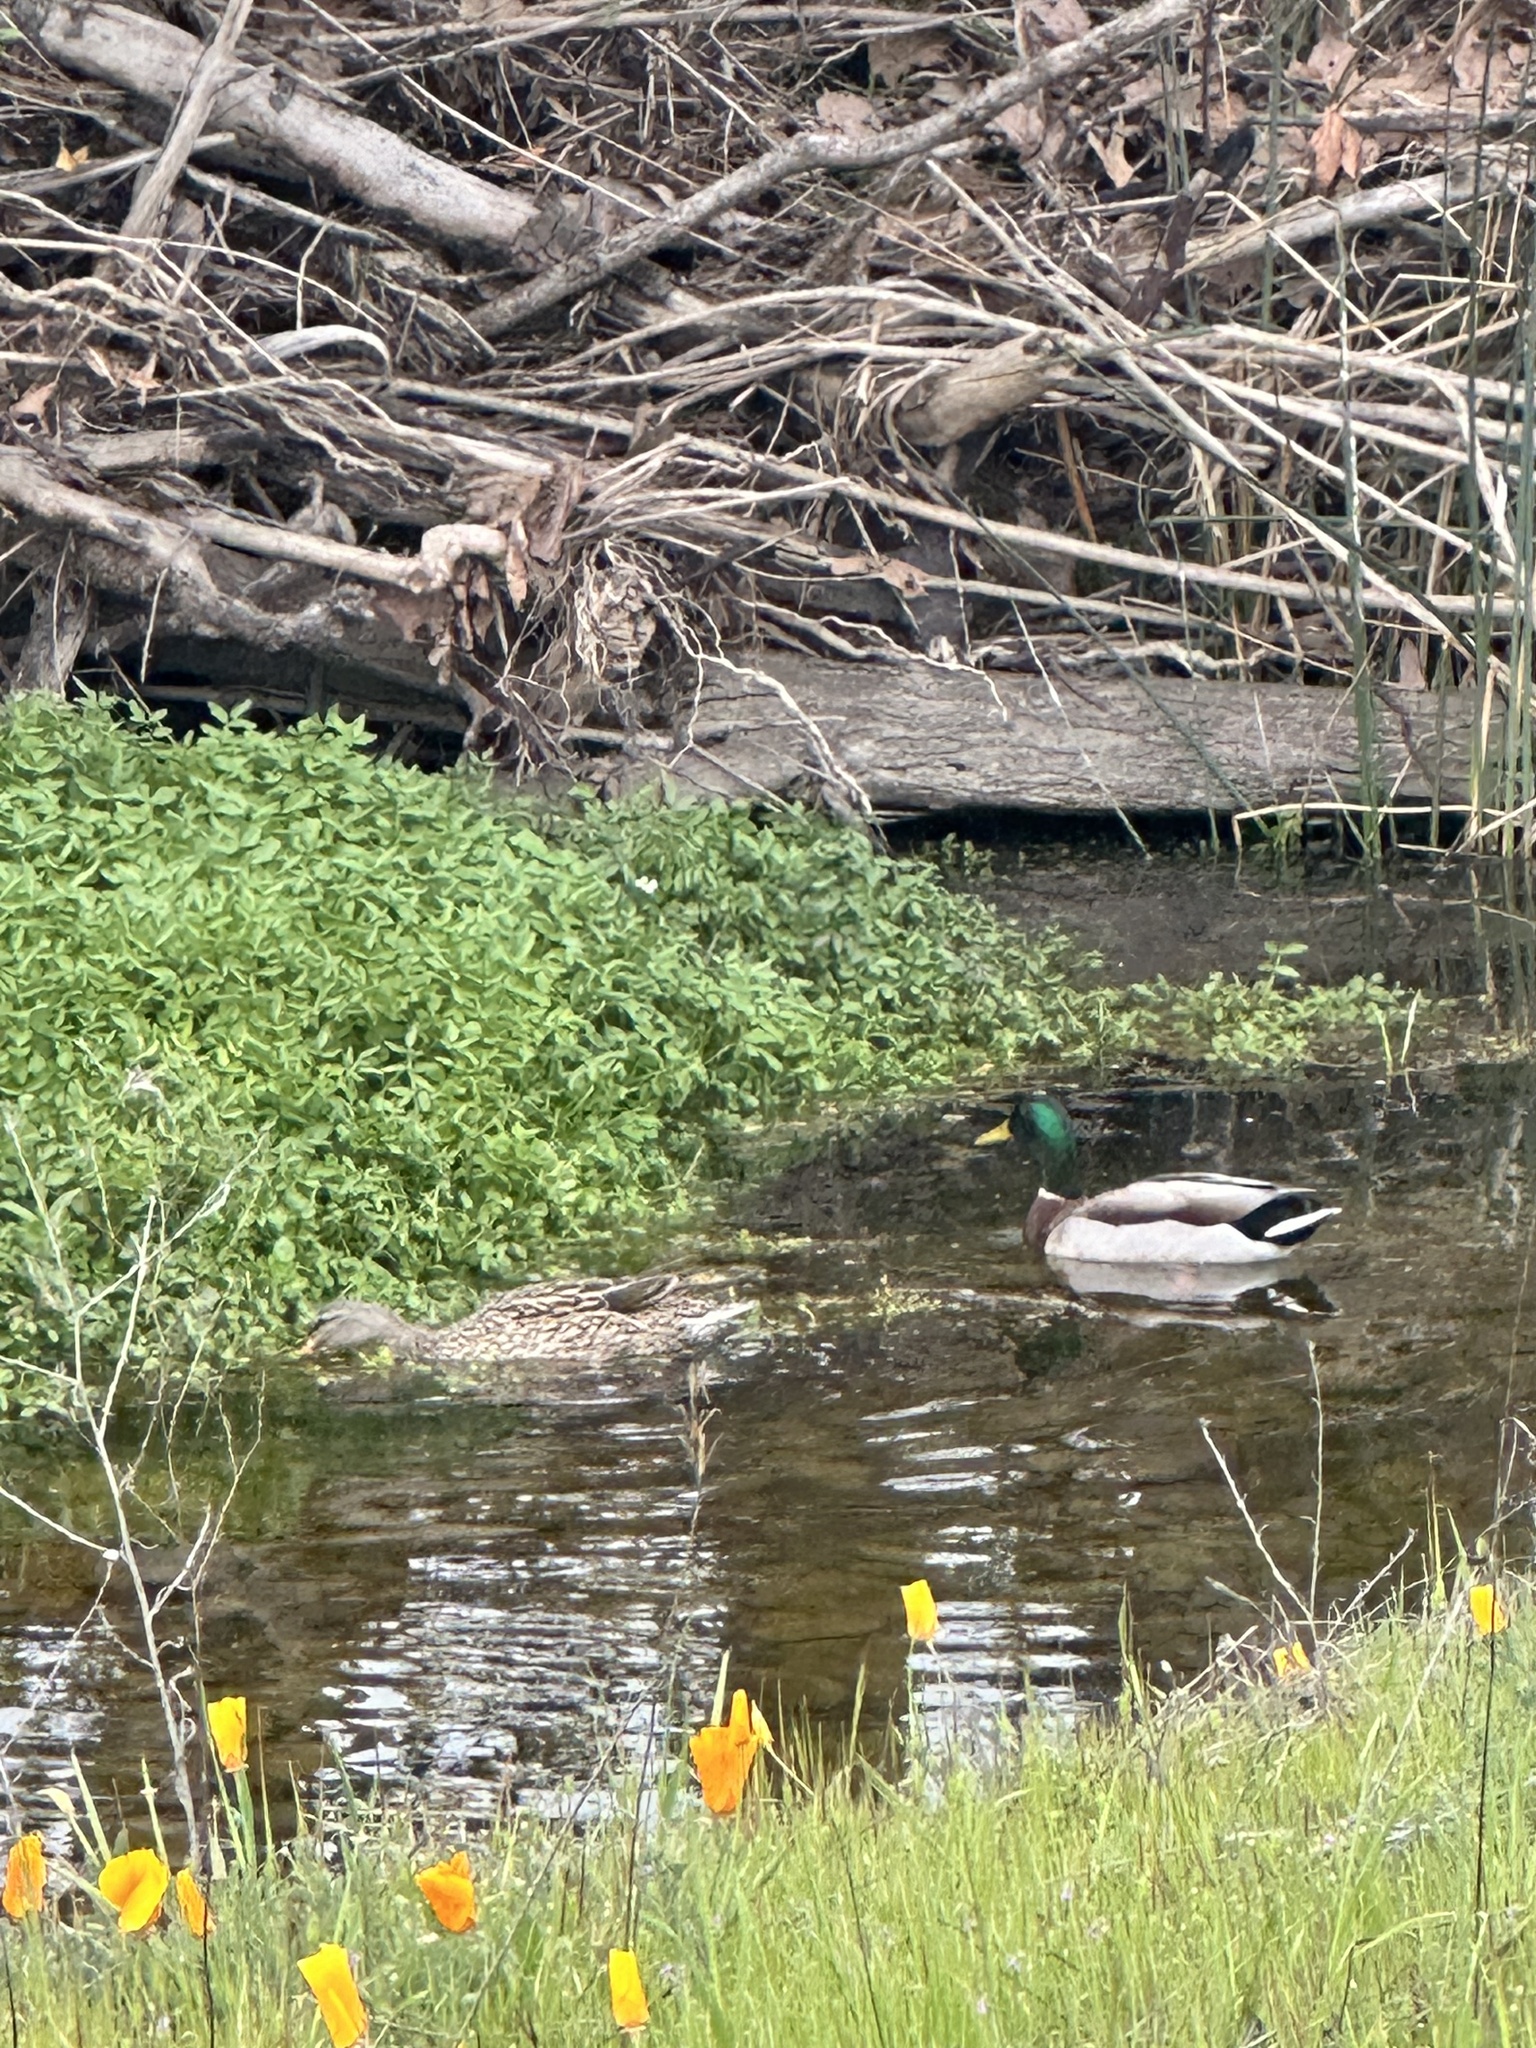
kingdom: Animalia
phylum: Chordata
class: Aves
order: Anseriformes
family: Anatidae
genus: Anas
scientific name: Anas platyrhynchos
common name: Mallard
